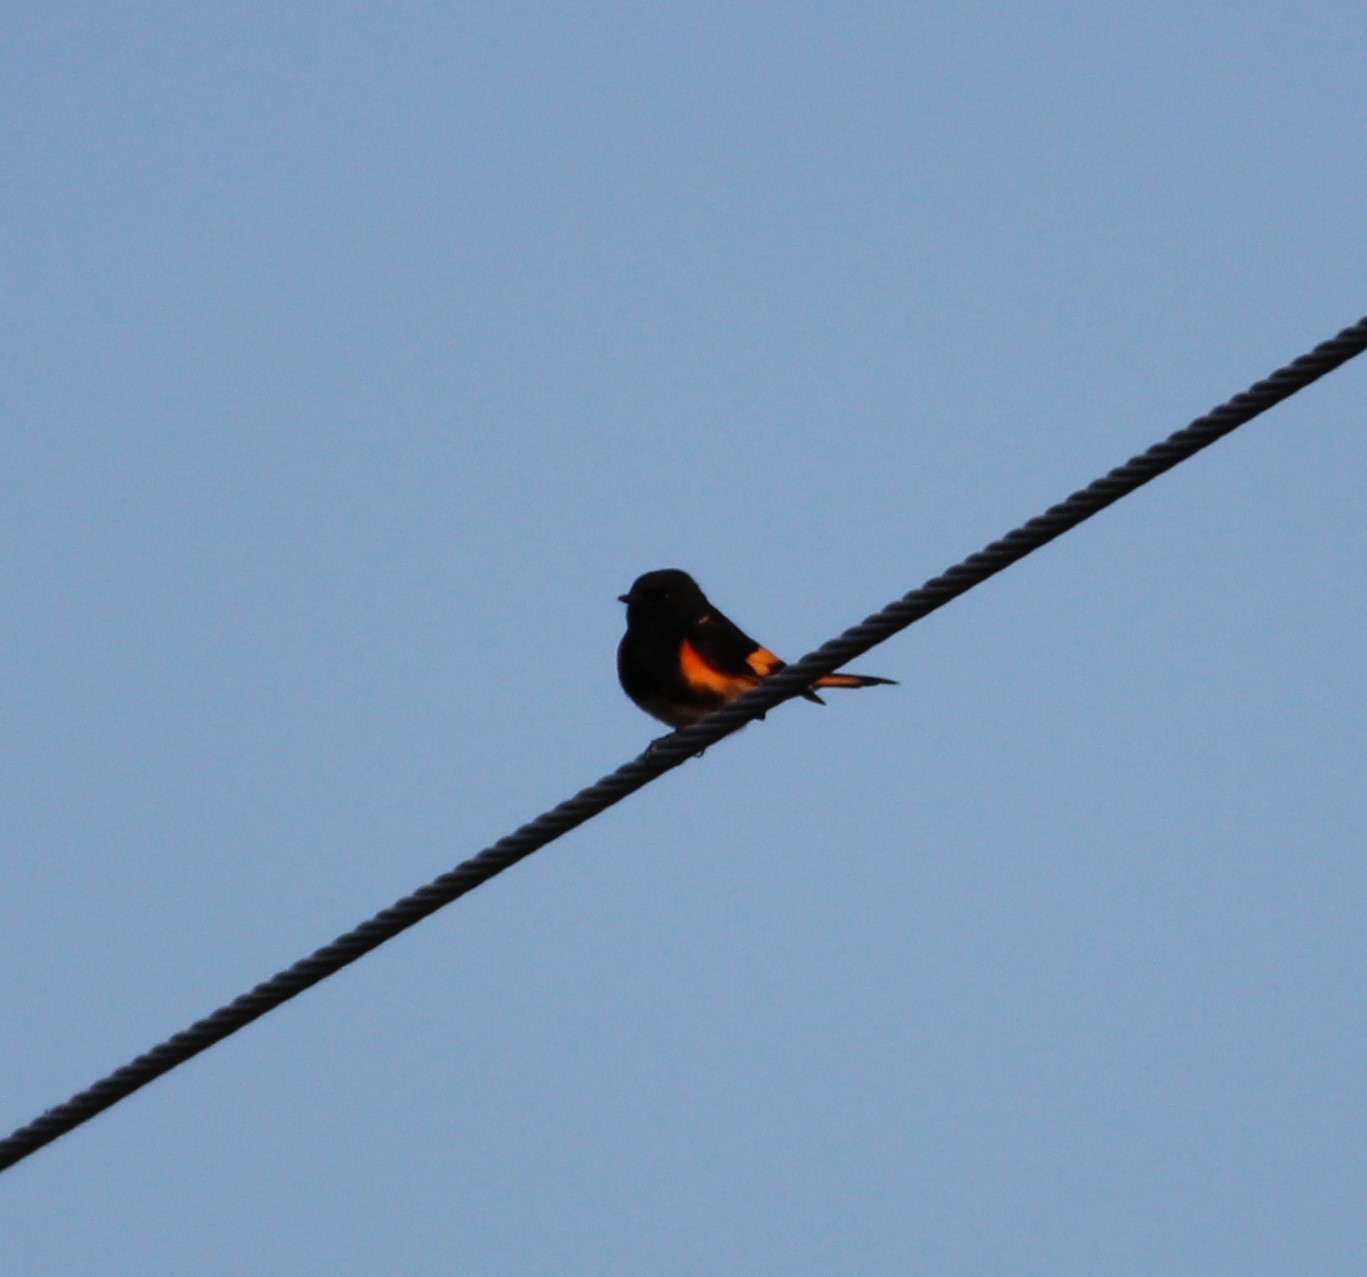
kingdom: Animalia
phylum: Chordata
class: Aves
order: Passeriformes
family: Parulidae
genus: Setophaga
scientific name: Setophaga ruticilla
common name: American redstart
